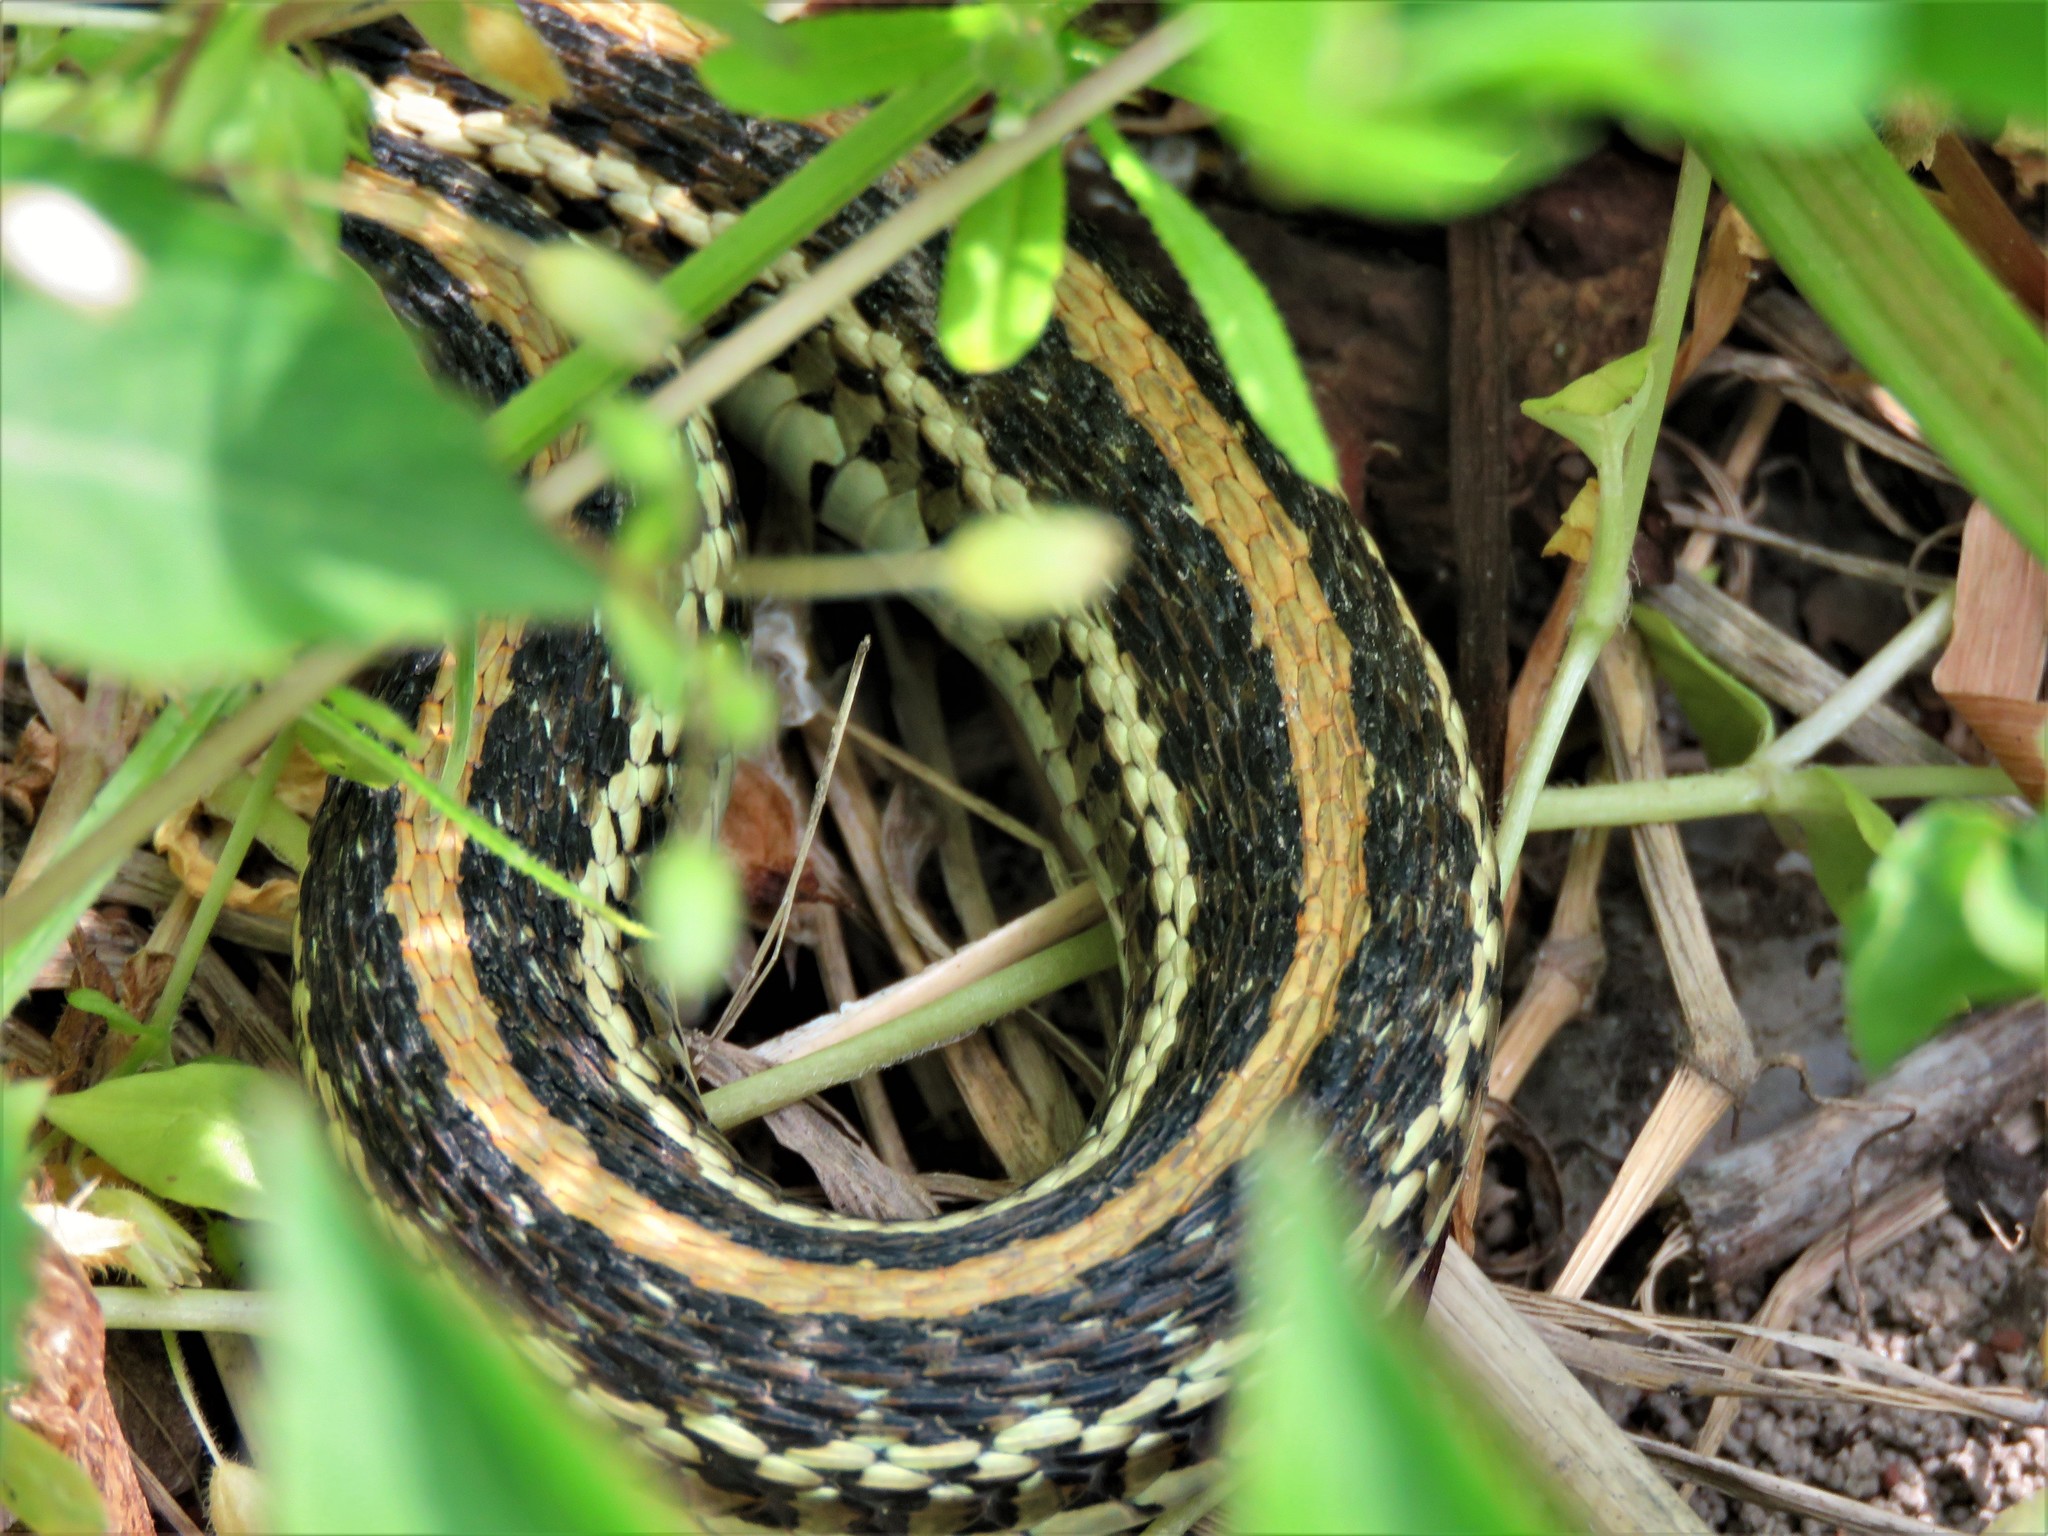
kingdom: Animalia
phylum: Chordata
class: Squamata
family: Colubridae
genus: Thamnophis
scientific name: Thamnophis sirtalis
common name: Common garter snake
